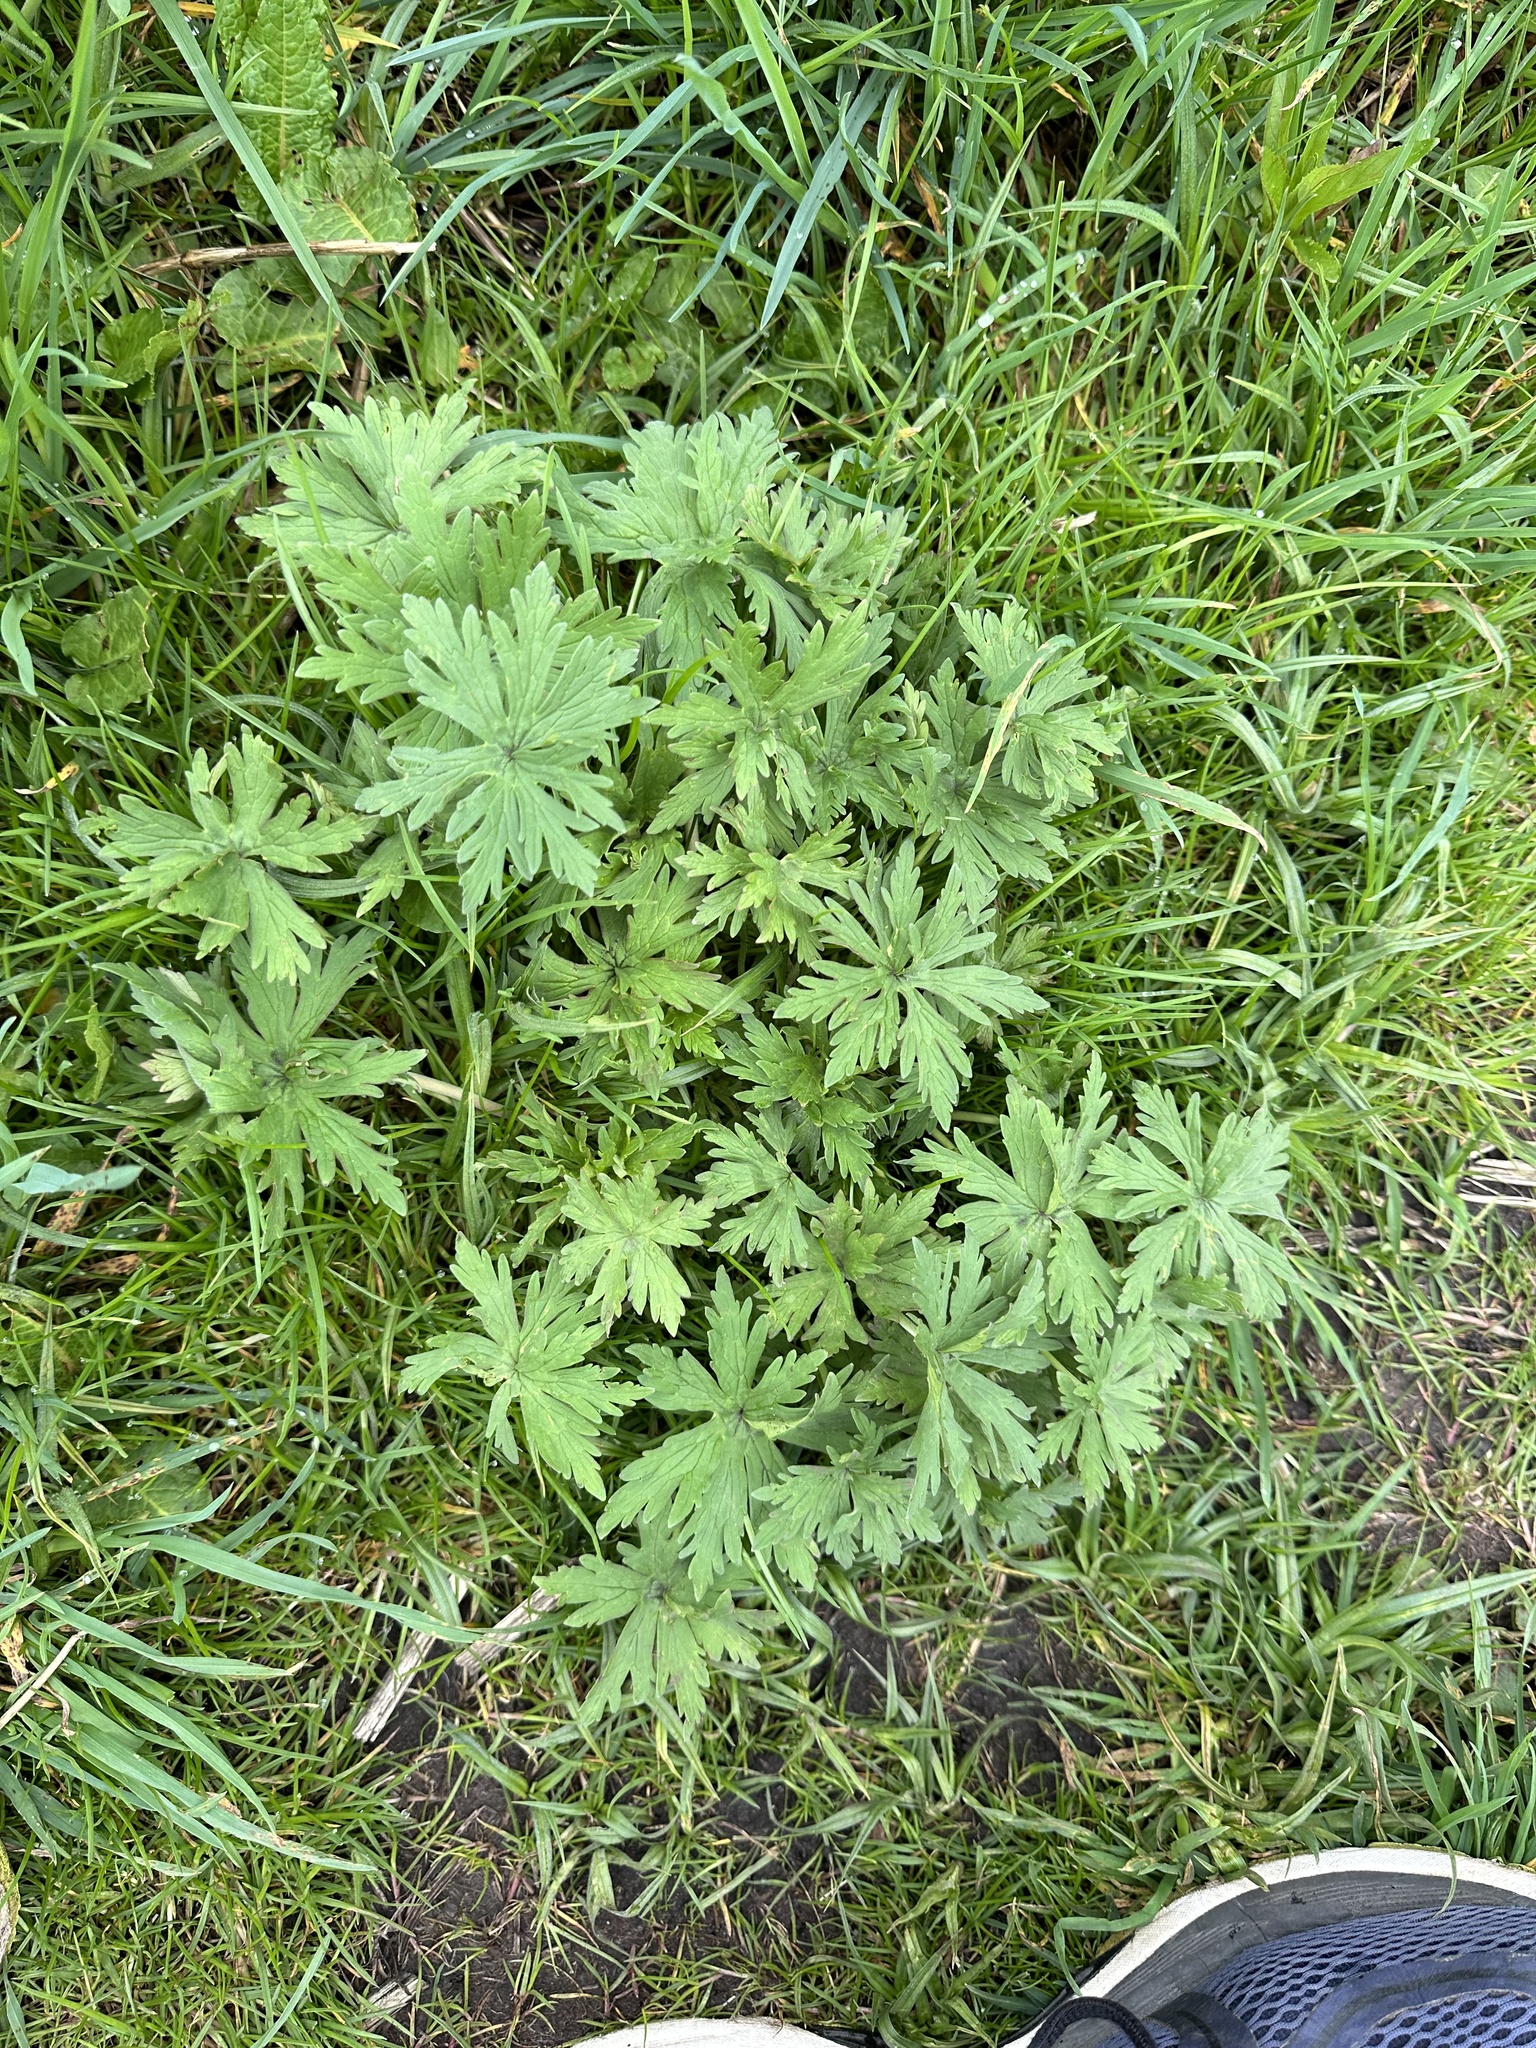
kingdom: Plantae
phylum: Tracheophyta
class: Magnoliopsida
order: Geraniales
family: Geraniaceae
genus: Geranium
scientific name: Geranium pratense
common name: Meadow crane's-bill
